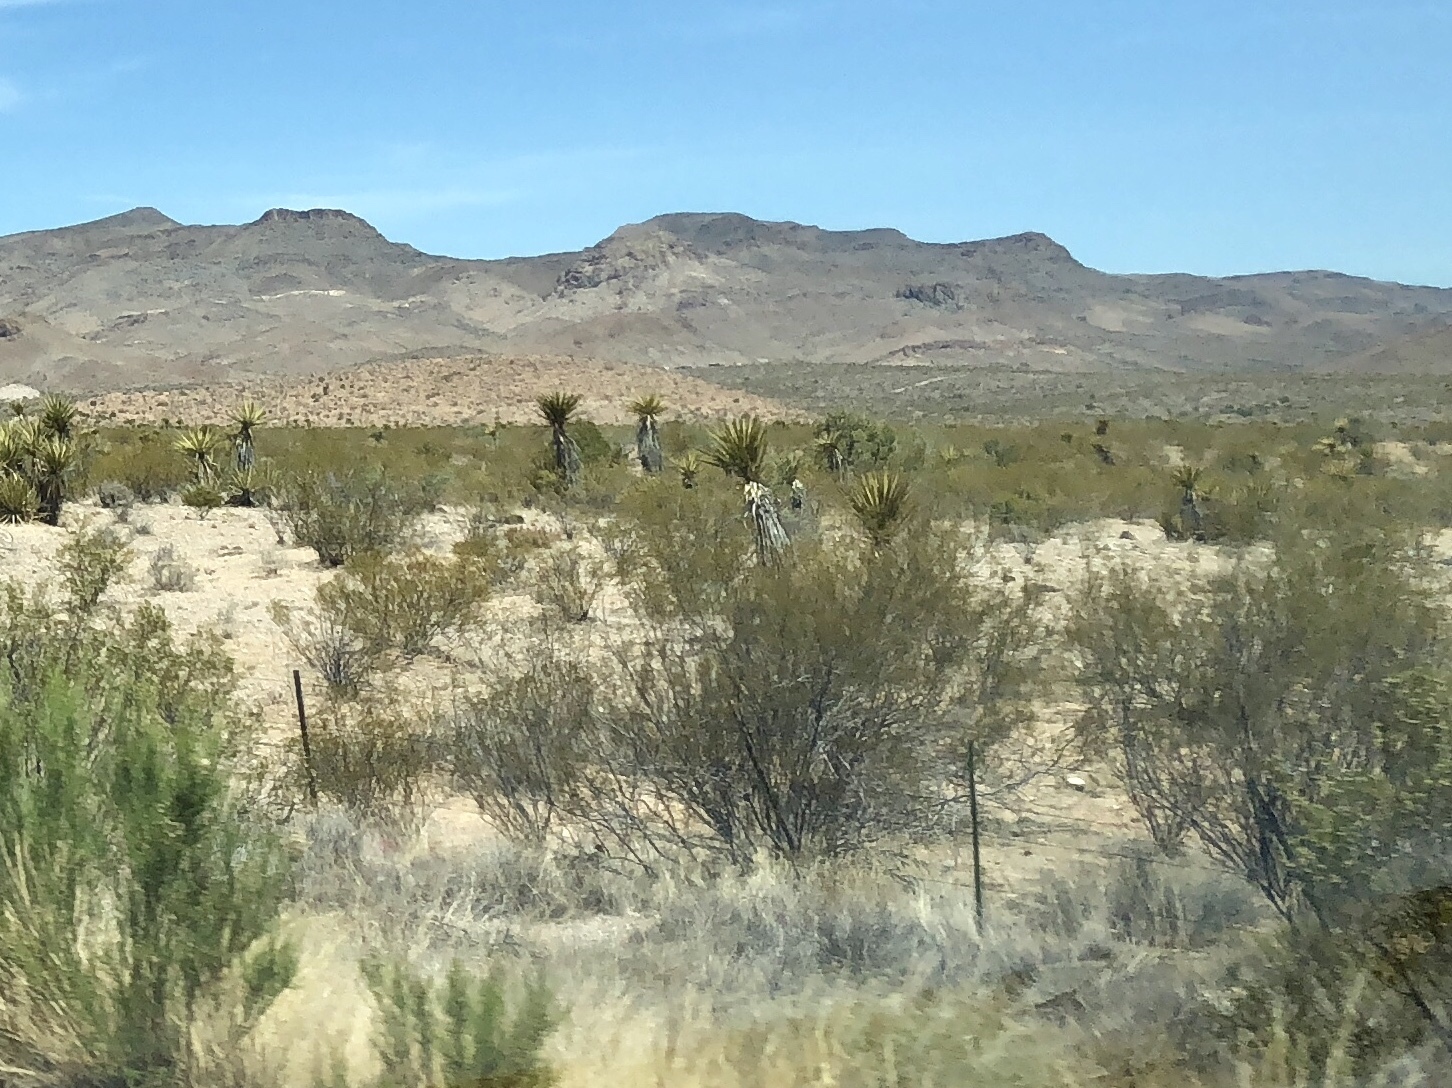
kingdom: Plantae
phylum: Tracheophyta
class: Magnoliopsida
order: Zygophyllales
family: Zygophyllaceae
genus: Larrea
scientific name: Larrea tridentata
